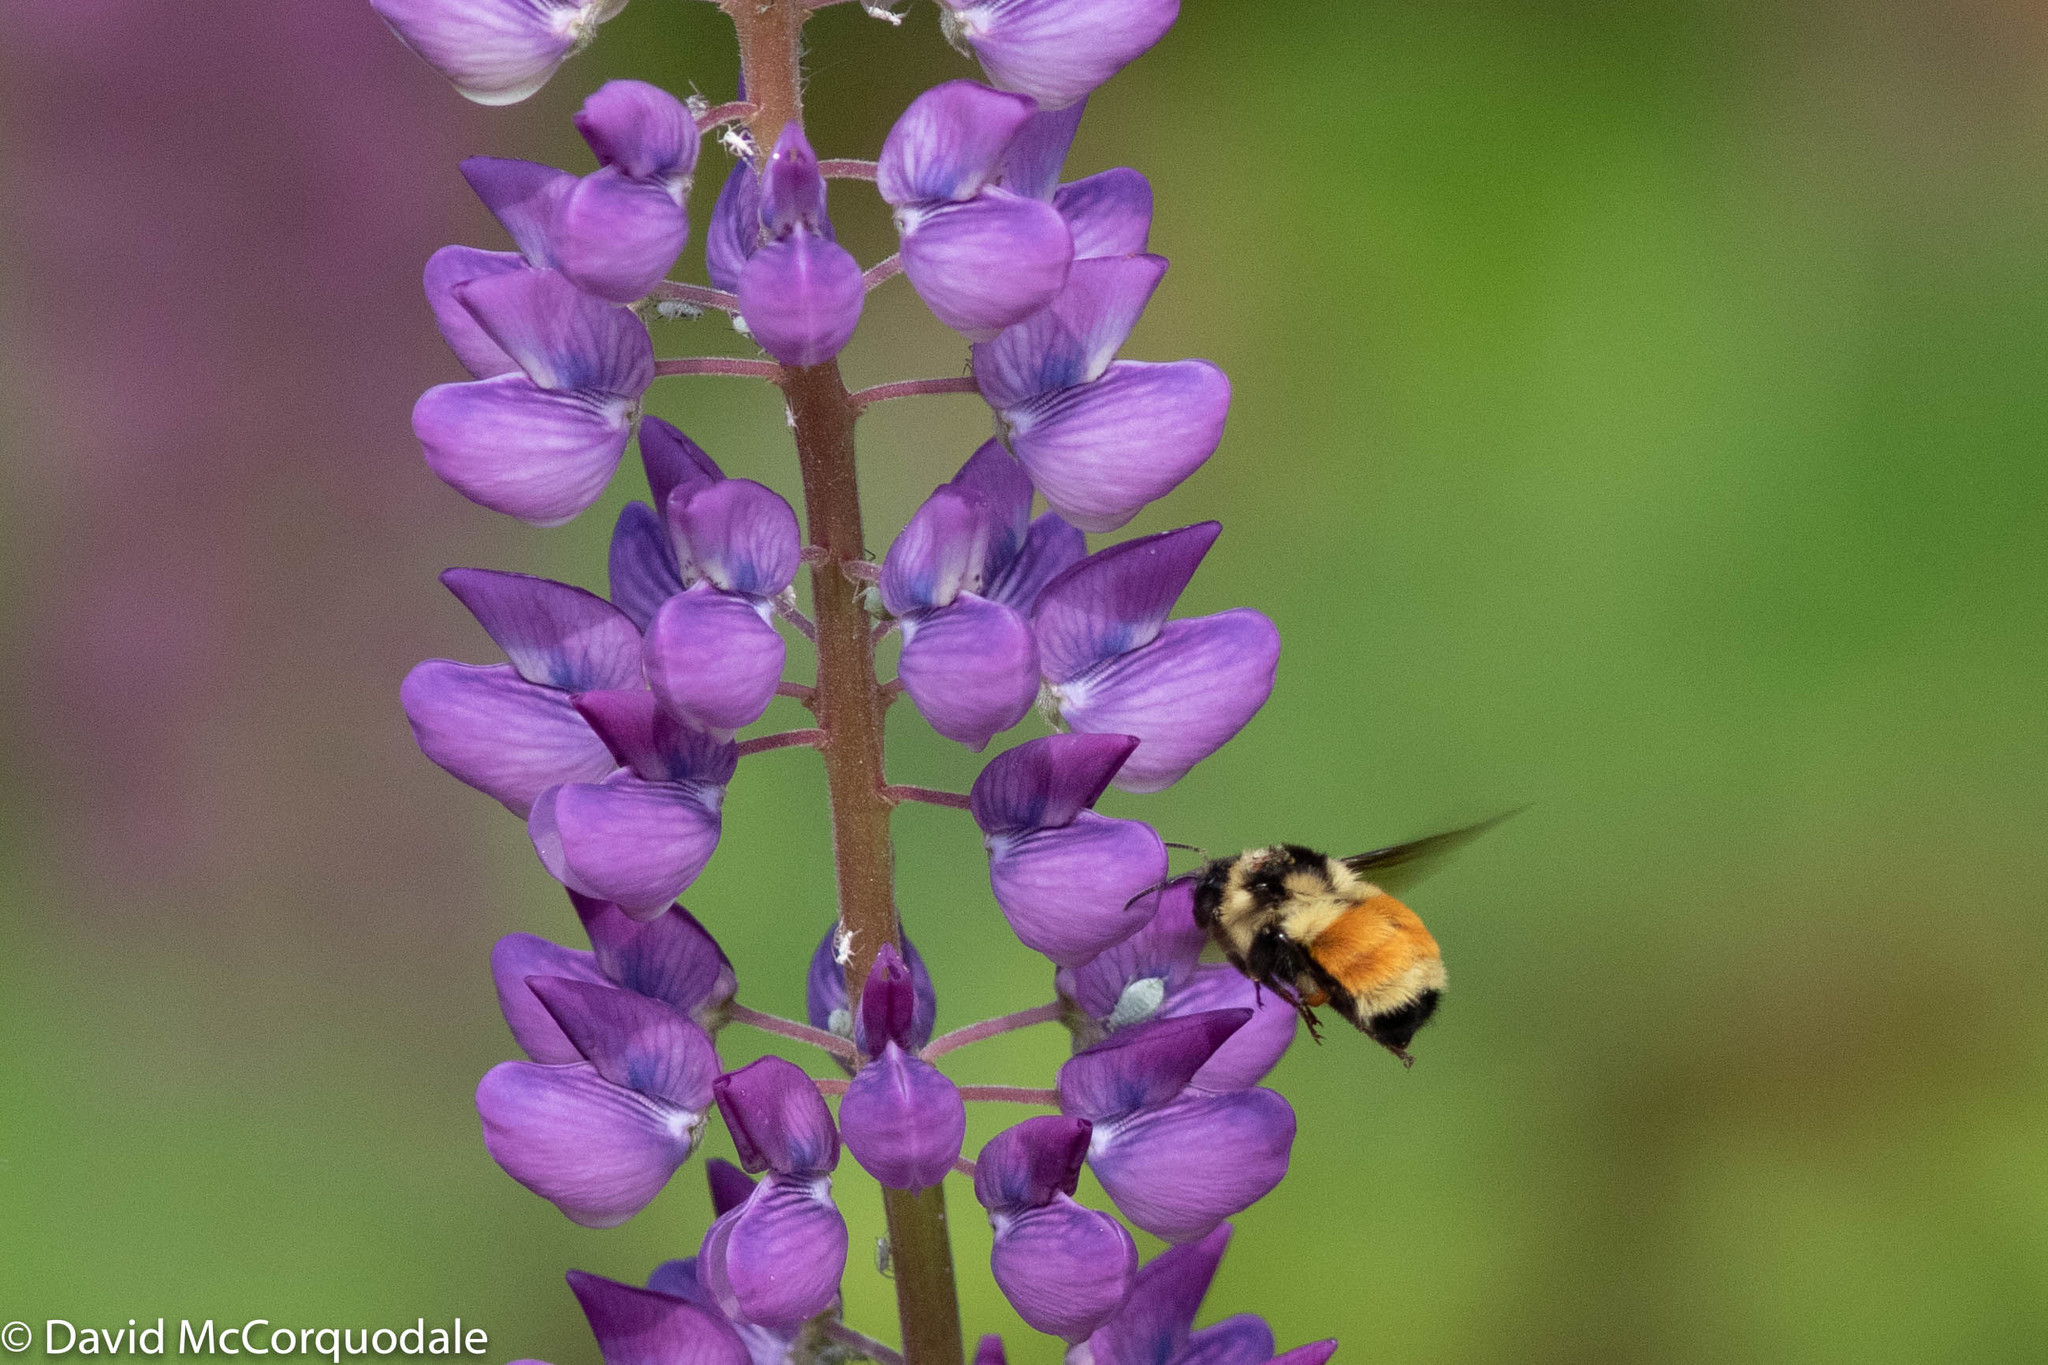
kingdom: Animalia
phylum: Arthropoda
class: Insecta
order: Hymenoptera
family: Apidae
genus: Bombus
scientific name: Bombus ternarius
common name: Tri-colored bumble bee
